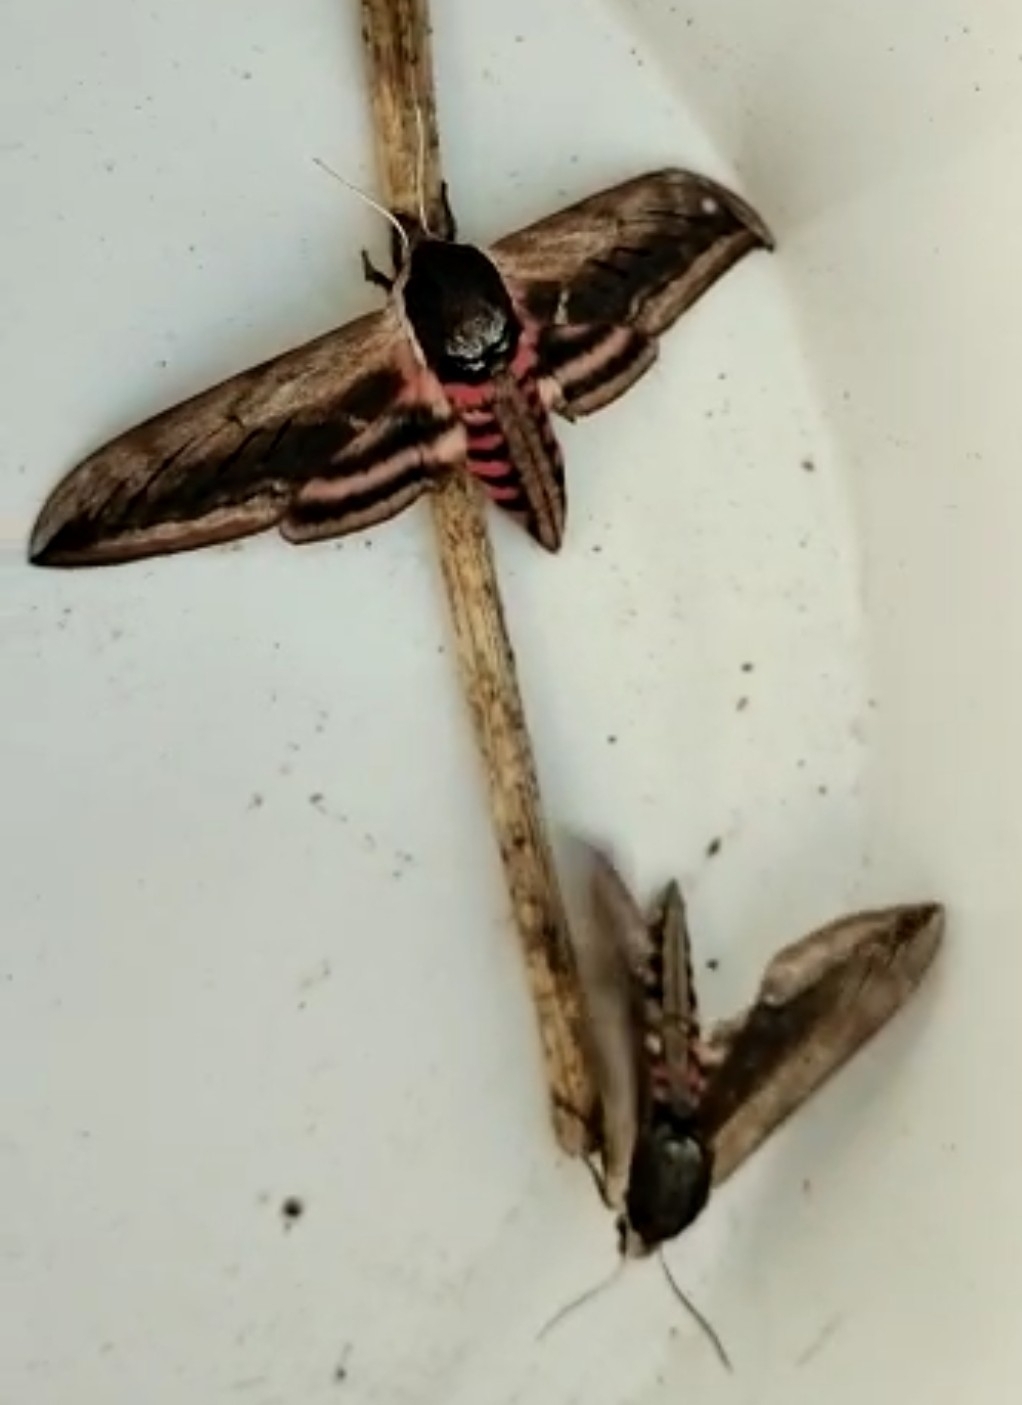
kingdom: Animalia
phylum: Arthropoda
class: Insecta
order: Lepidoptera
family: Sphingidae
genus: Sphinx
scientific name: Sphinx ligustri
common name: Privet hawk-moth
